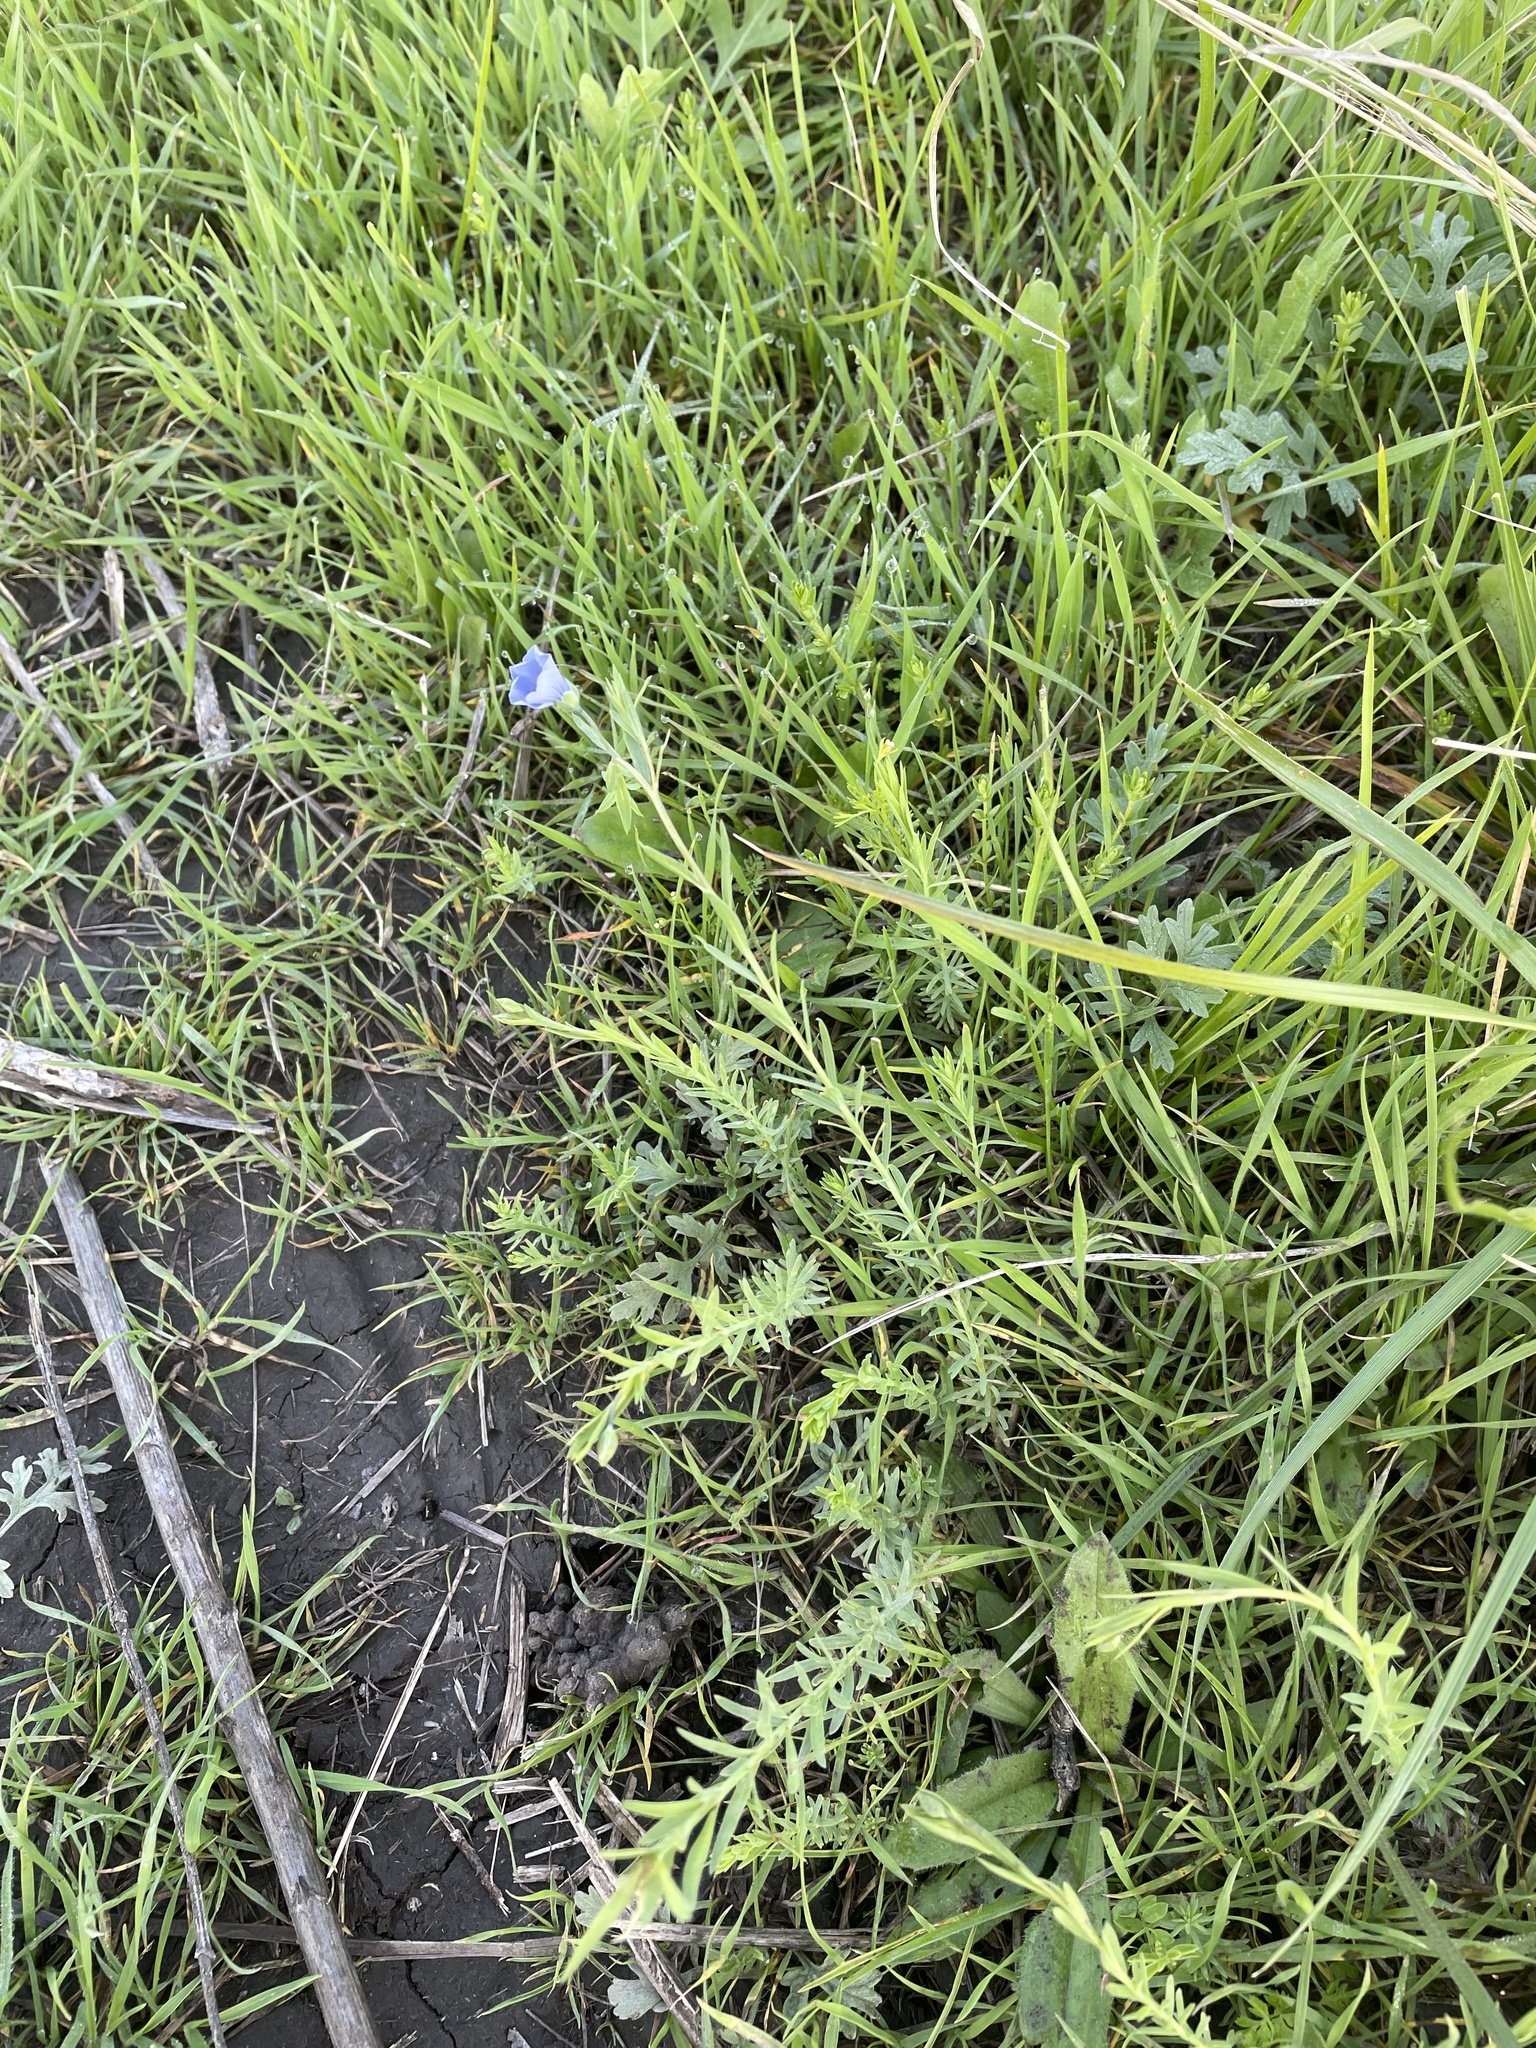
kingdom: Plantae
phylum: Tracheophyta
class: Magnoliopsida
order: Malpighiales
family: Linaceae
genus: Linum
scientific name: Linum pratense
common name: Norton's flax
